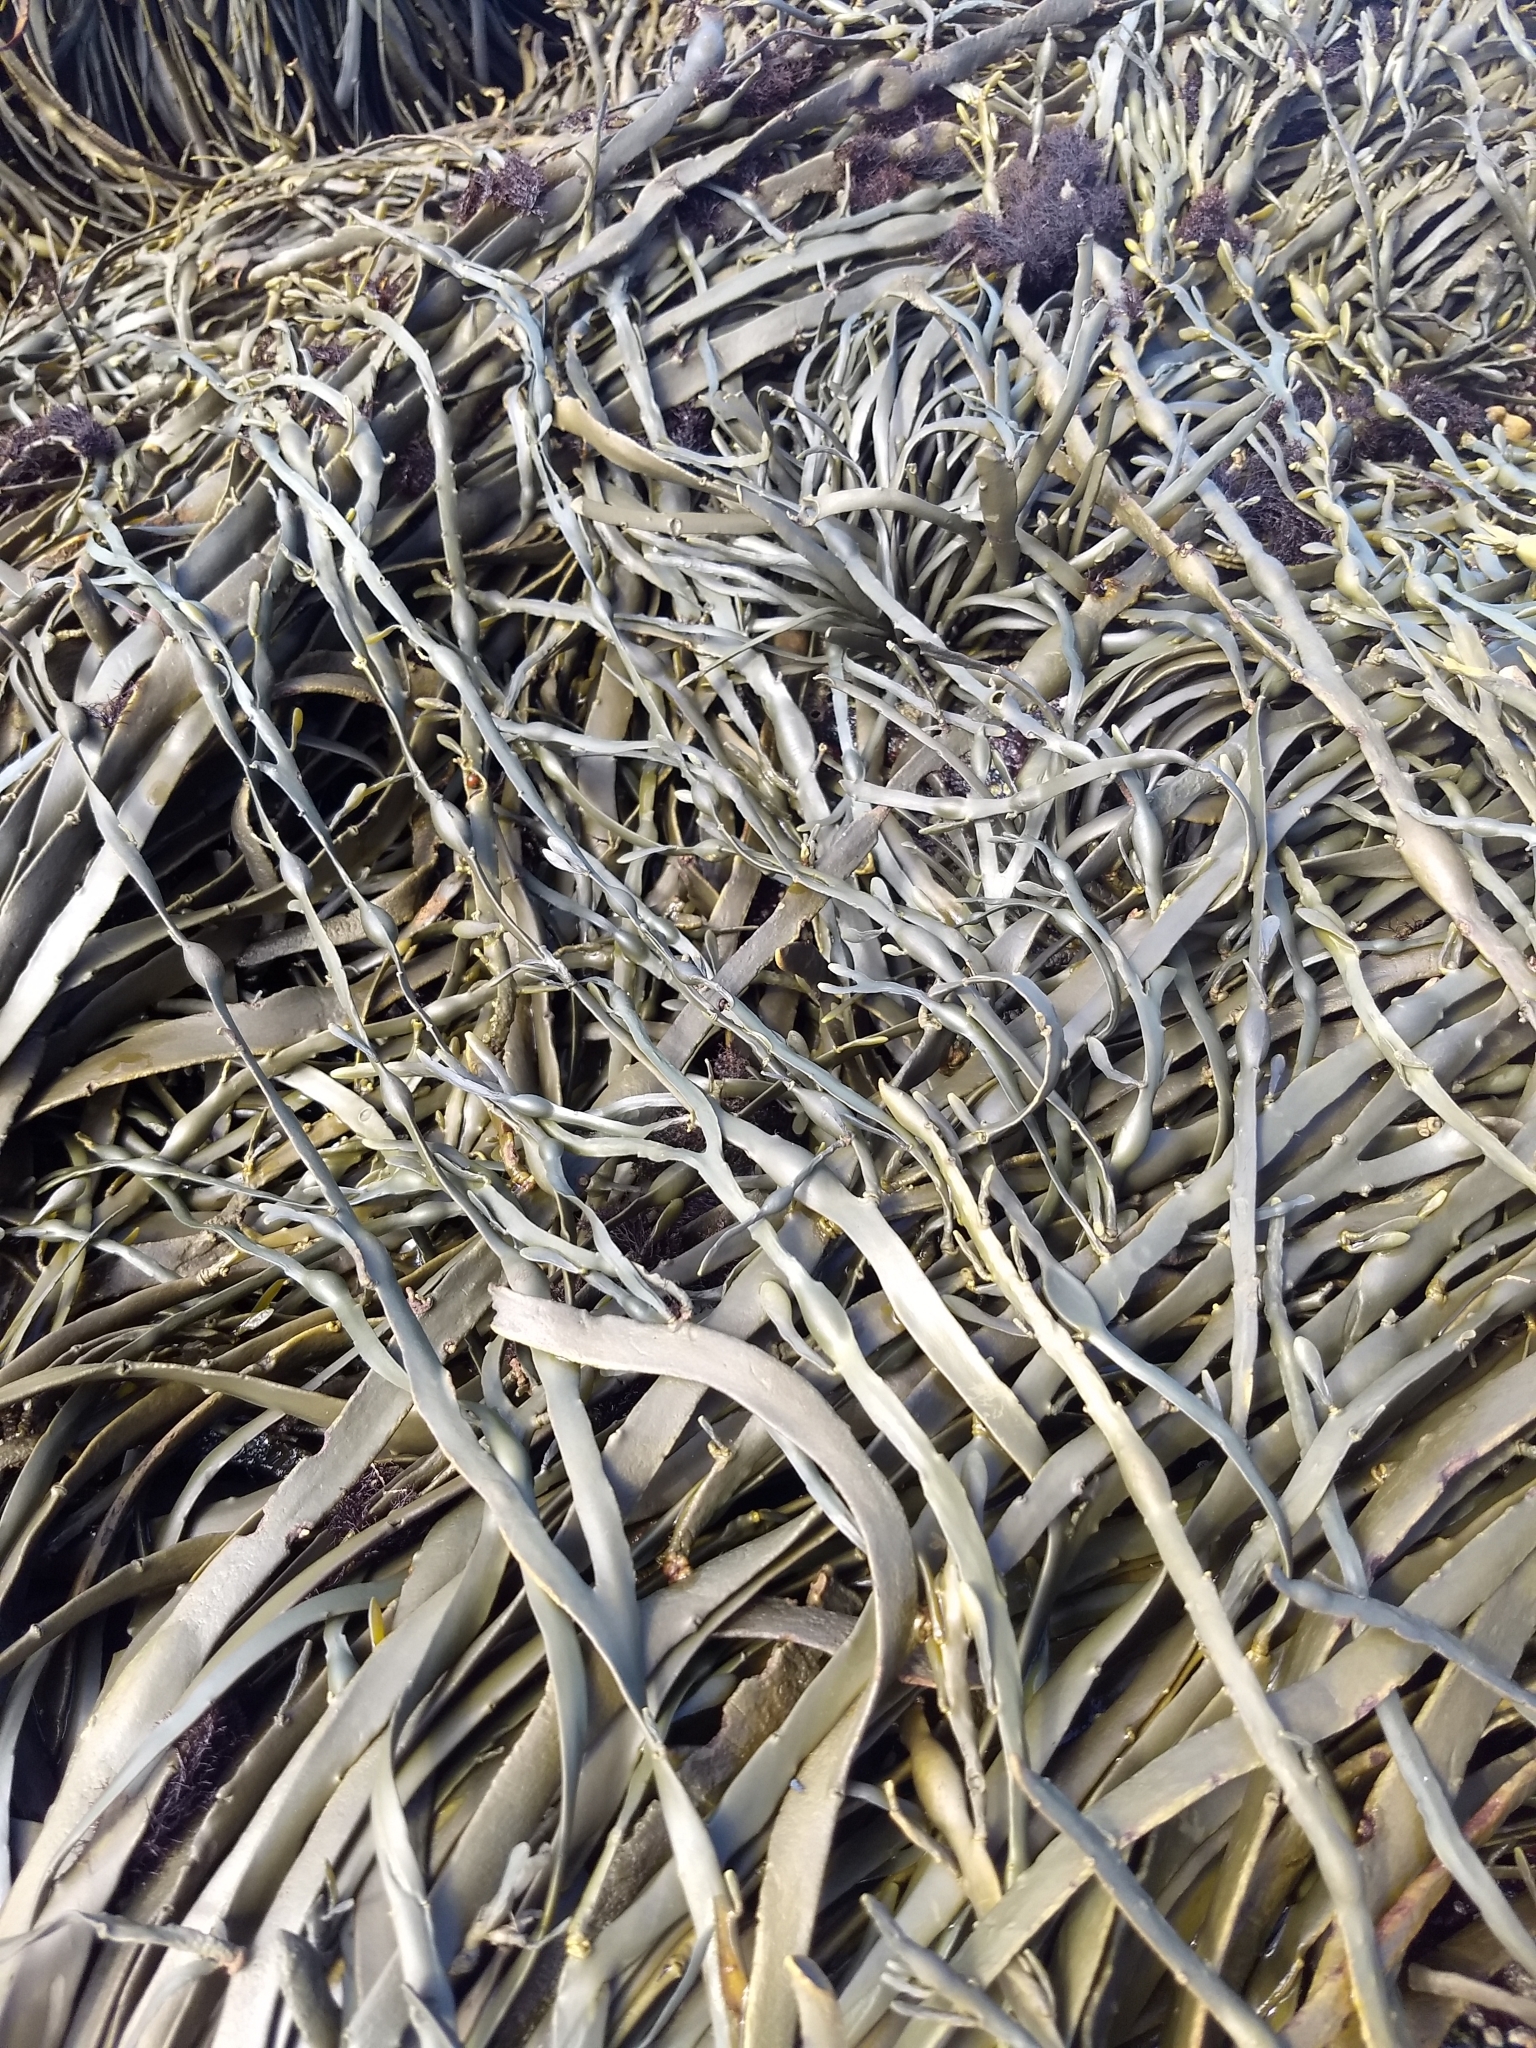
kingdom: Chromista
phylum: Ochrophyta
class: Phaeophyceae
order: Fucales
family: Fucaceae
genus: Ascophyllum
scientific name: Ascophyllum nodosum
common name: Knotted wrack
